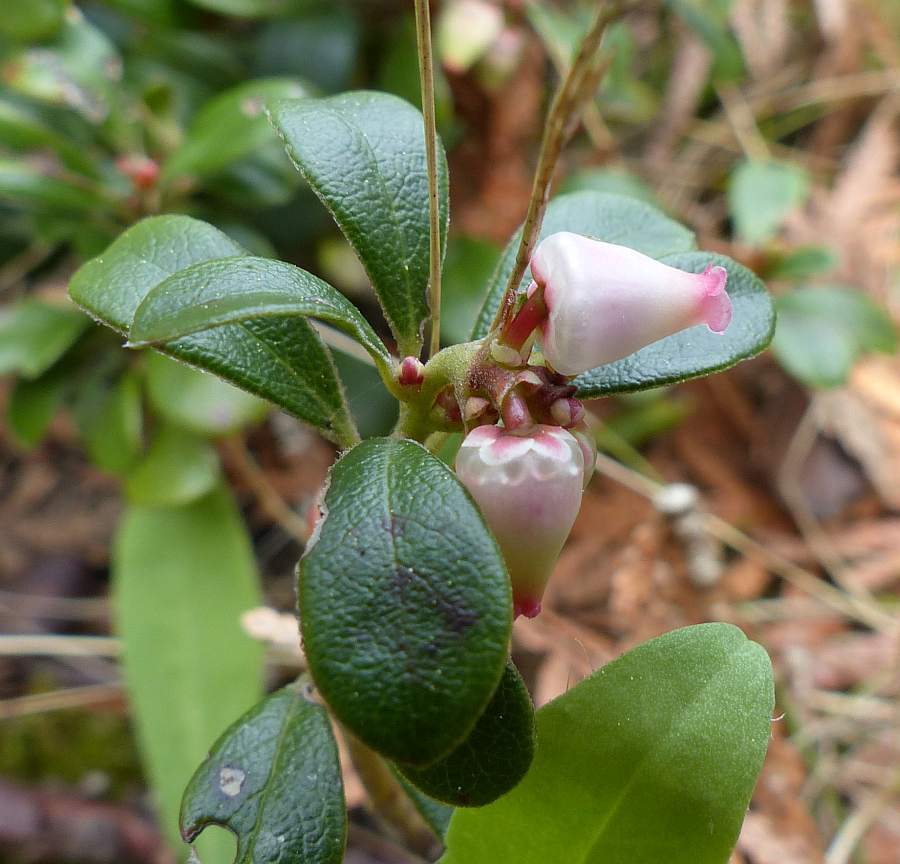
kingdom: Plantae
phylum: Tracheophyta
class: Magnoliopsida
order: Ericales
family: Ericaceae
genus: Arctostaphylos
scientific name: Arctostaphylos uva-ursi
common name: Bearberry
